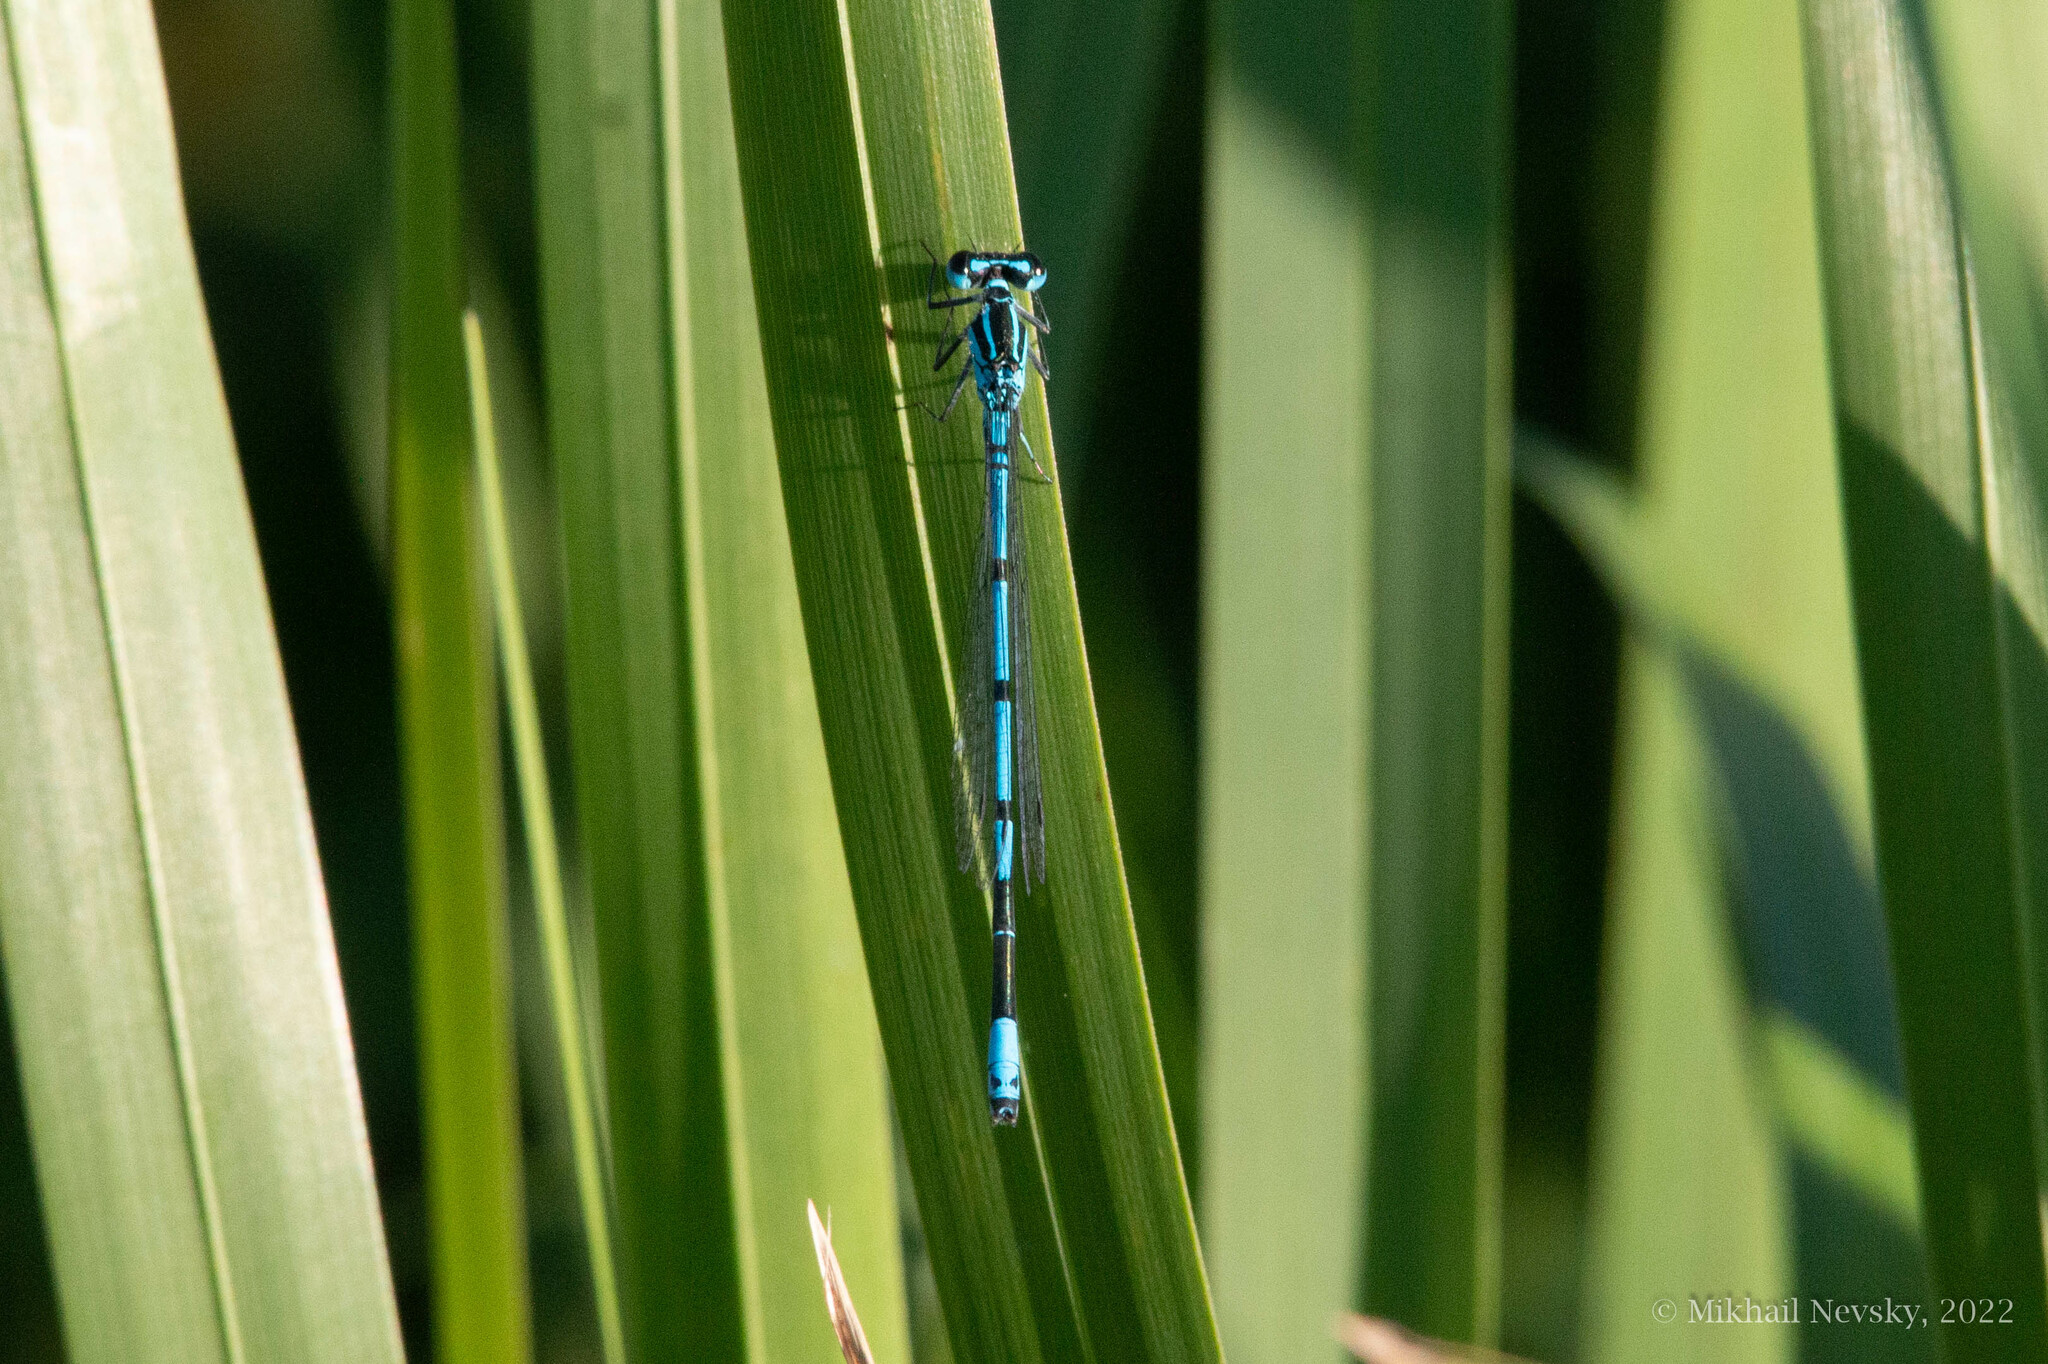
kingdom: Animalia
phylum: Arthropoda
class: Insecta
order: Odonata
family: Coenagrionidae
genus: Coenagrion
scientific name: Coenagrion puella
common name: Azure damselfly
